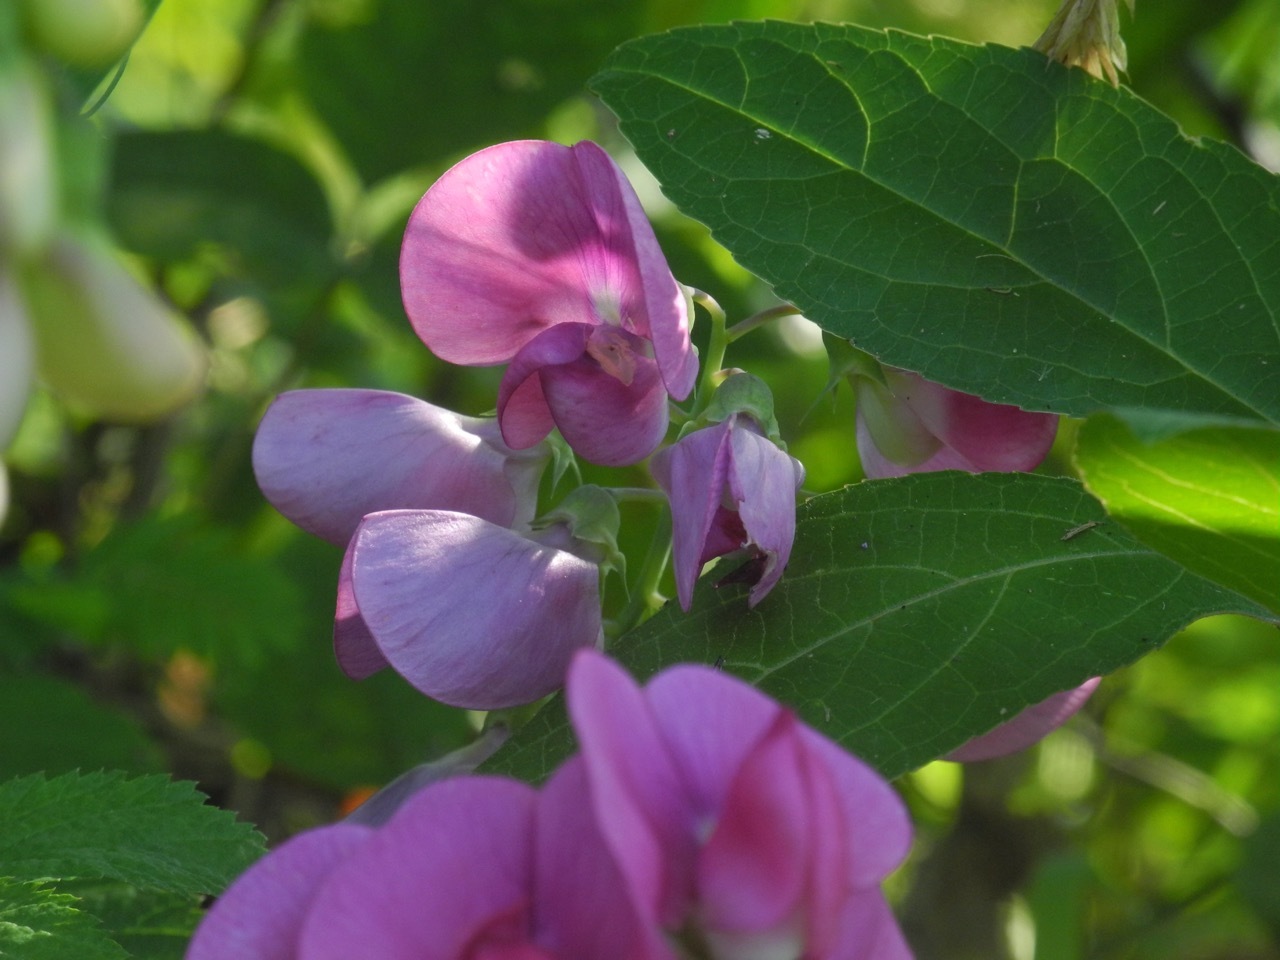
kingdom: Plantae
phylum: Tracheophyta
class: Magnoliopsida
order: Fabales
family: Fabaceae
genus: Lathyrus
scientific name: Lathyrus latifolius
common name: Perennial pea
